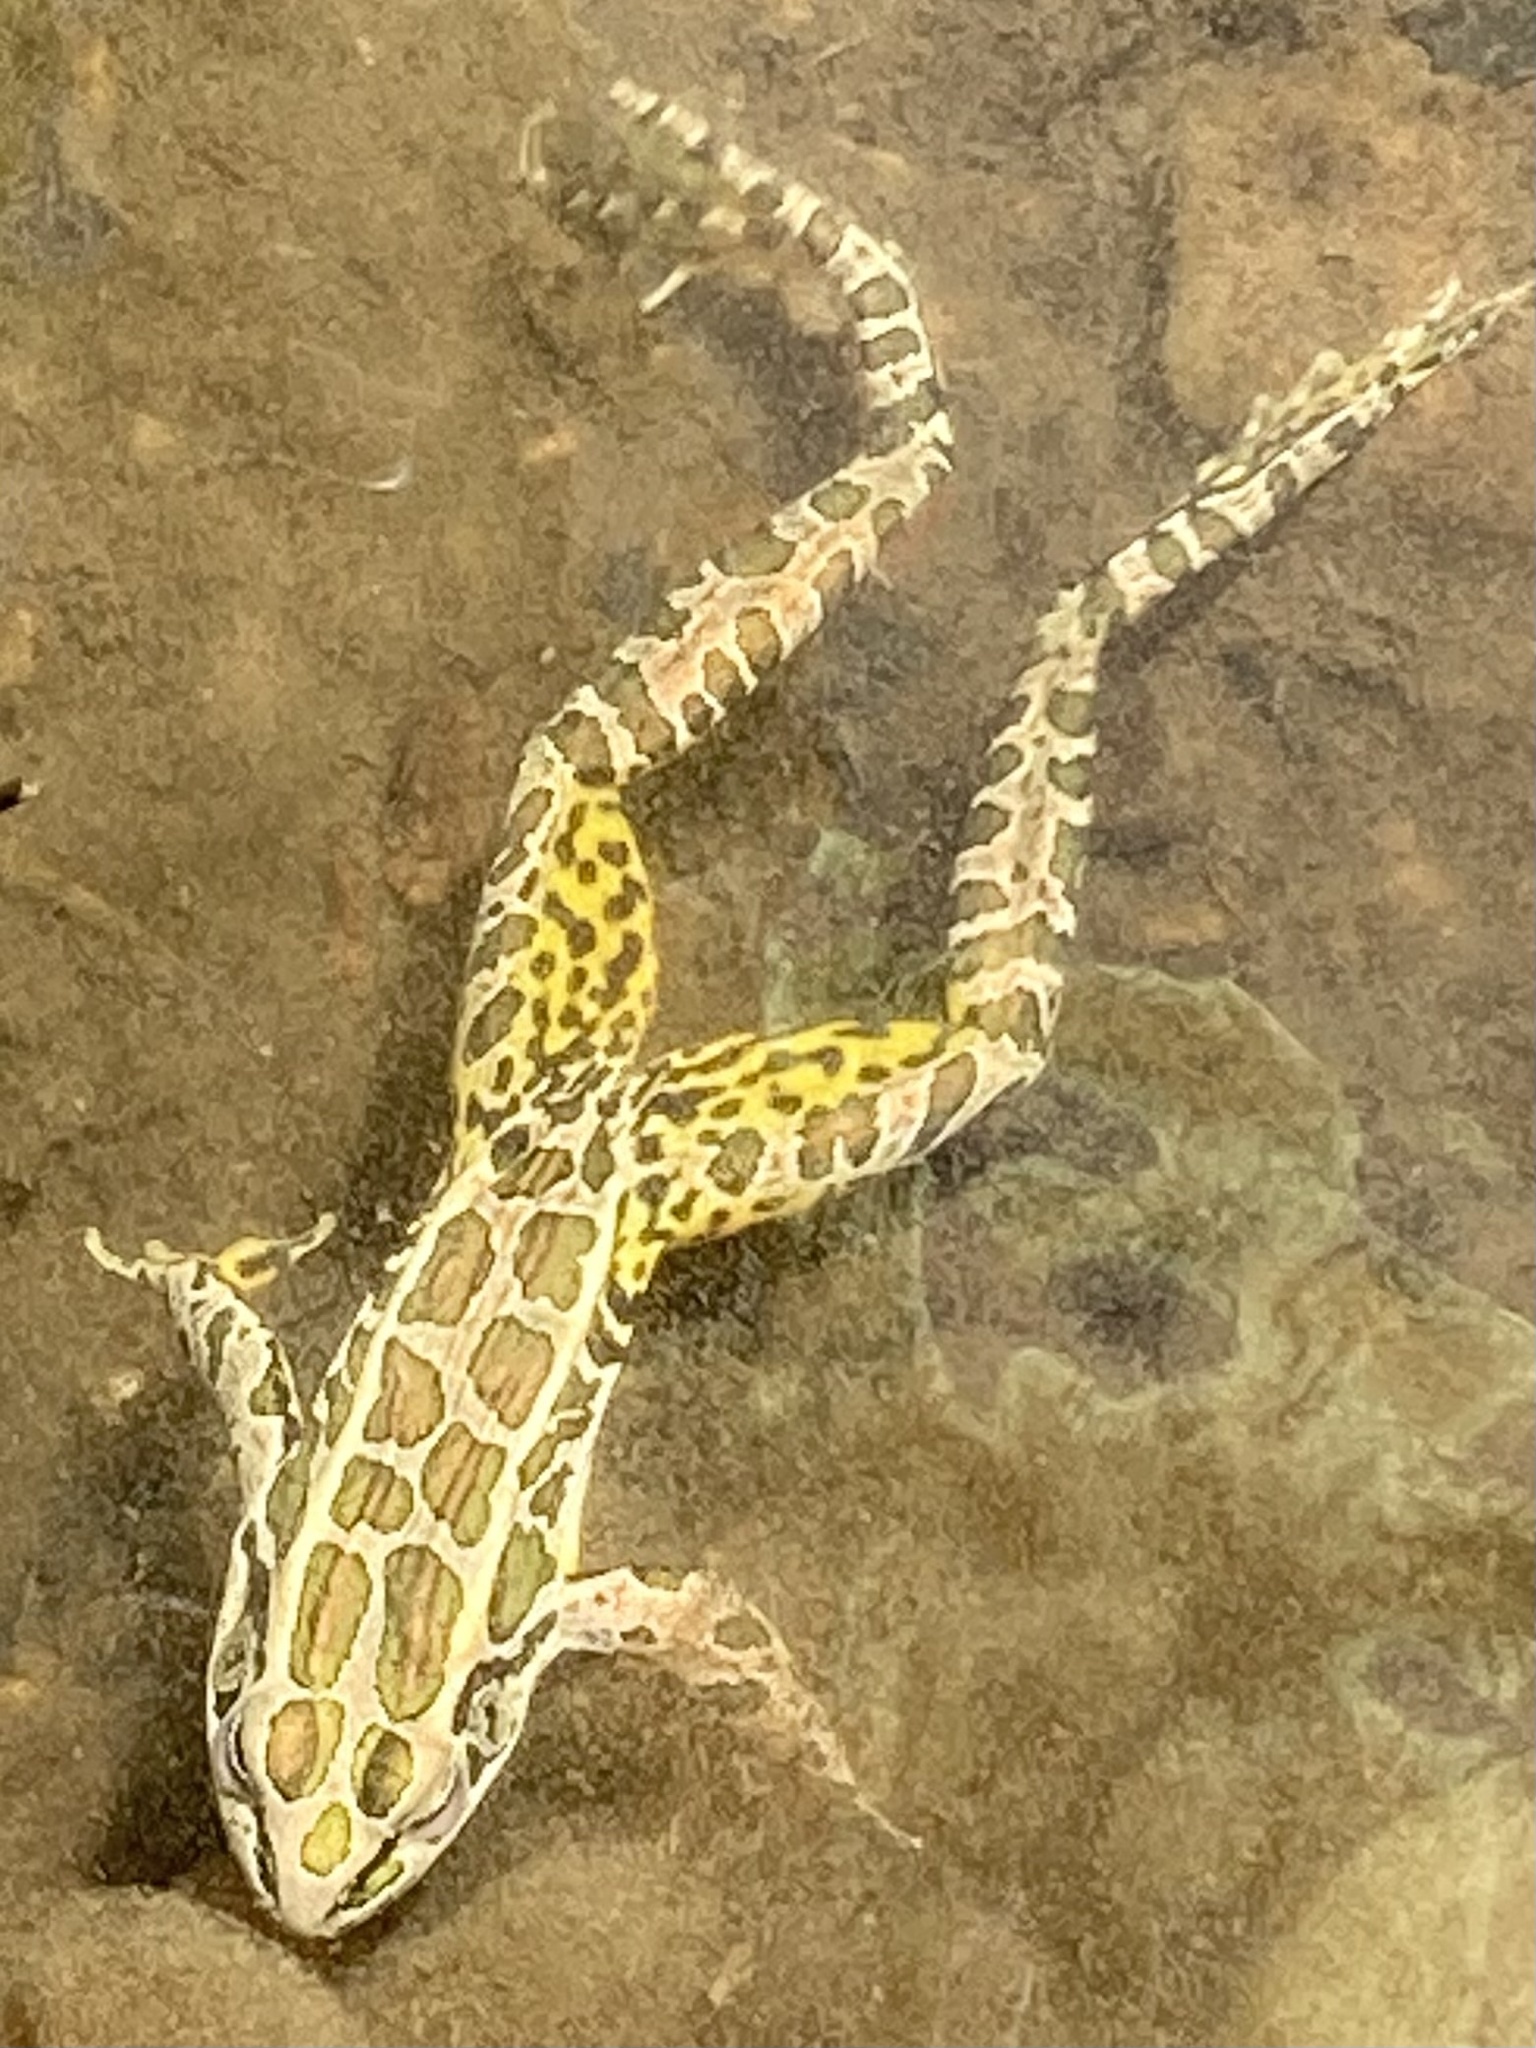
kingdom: Animalia
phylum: Chordata
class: Amphibia
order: Anura
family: Ranidae
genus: Lithobates
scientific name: Lithobates palustris
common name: Pickerel frog
